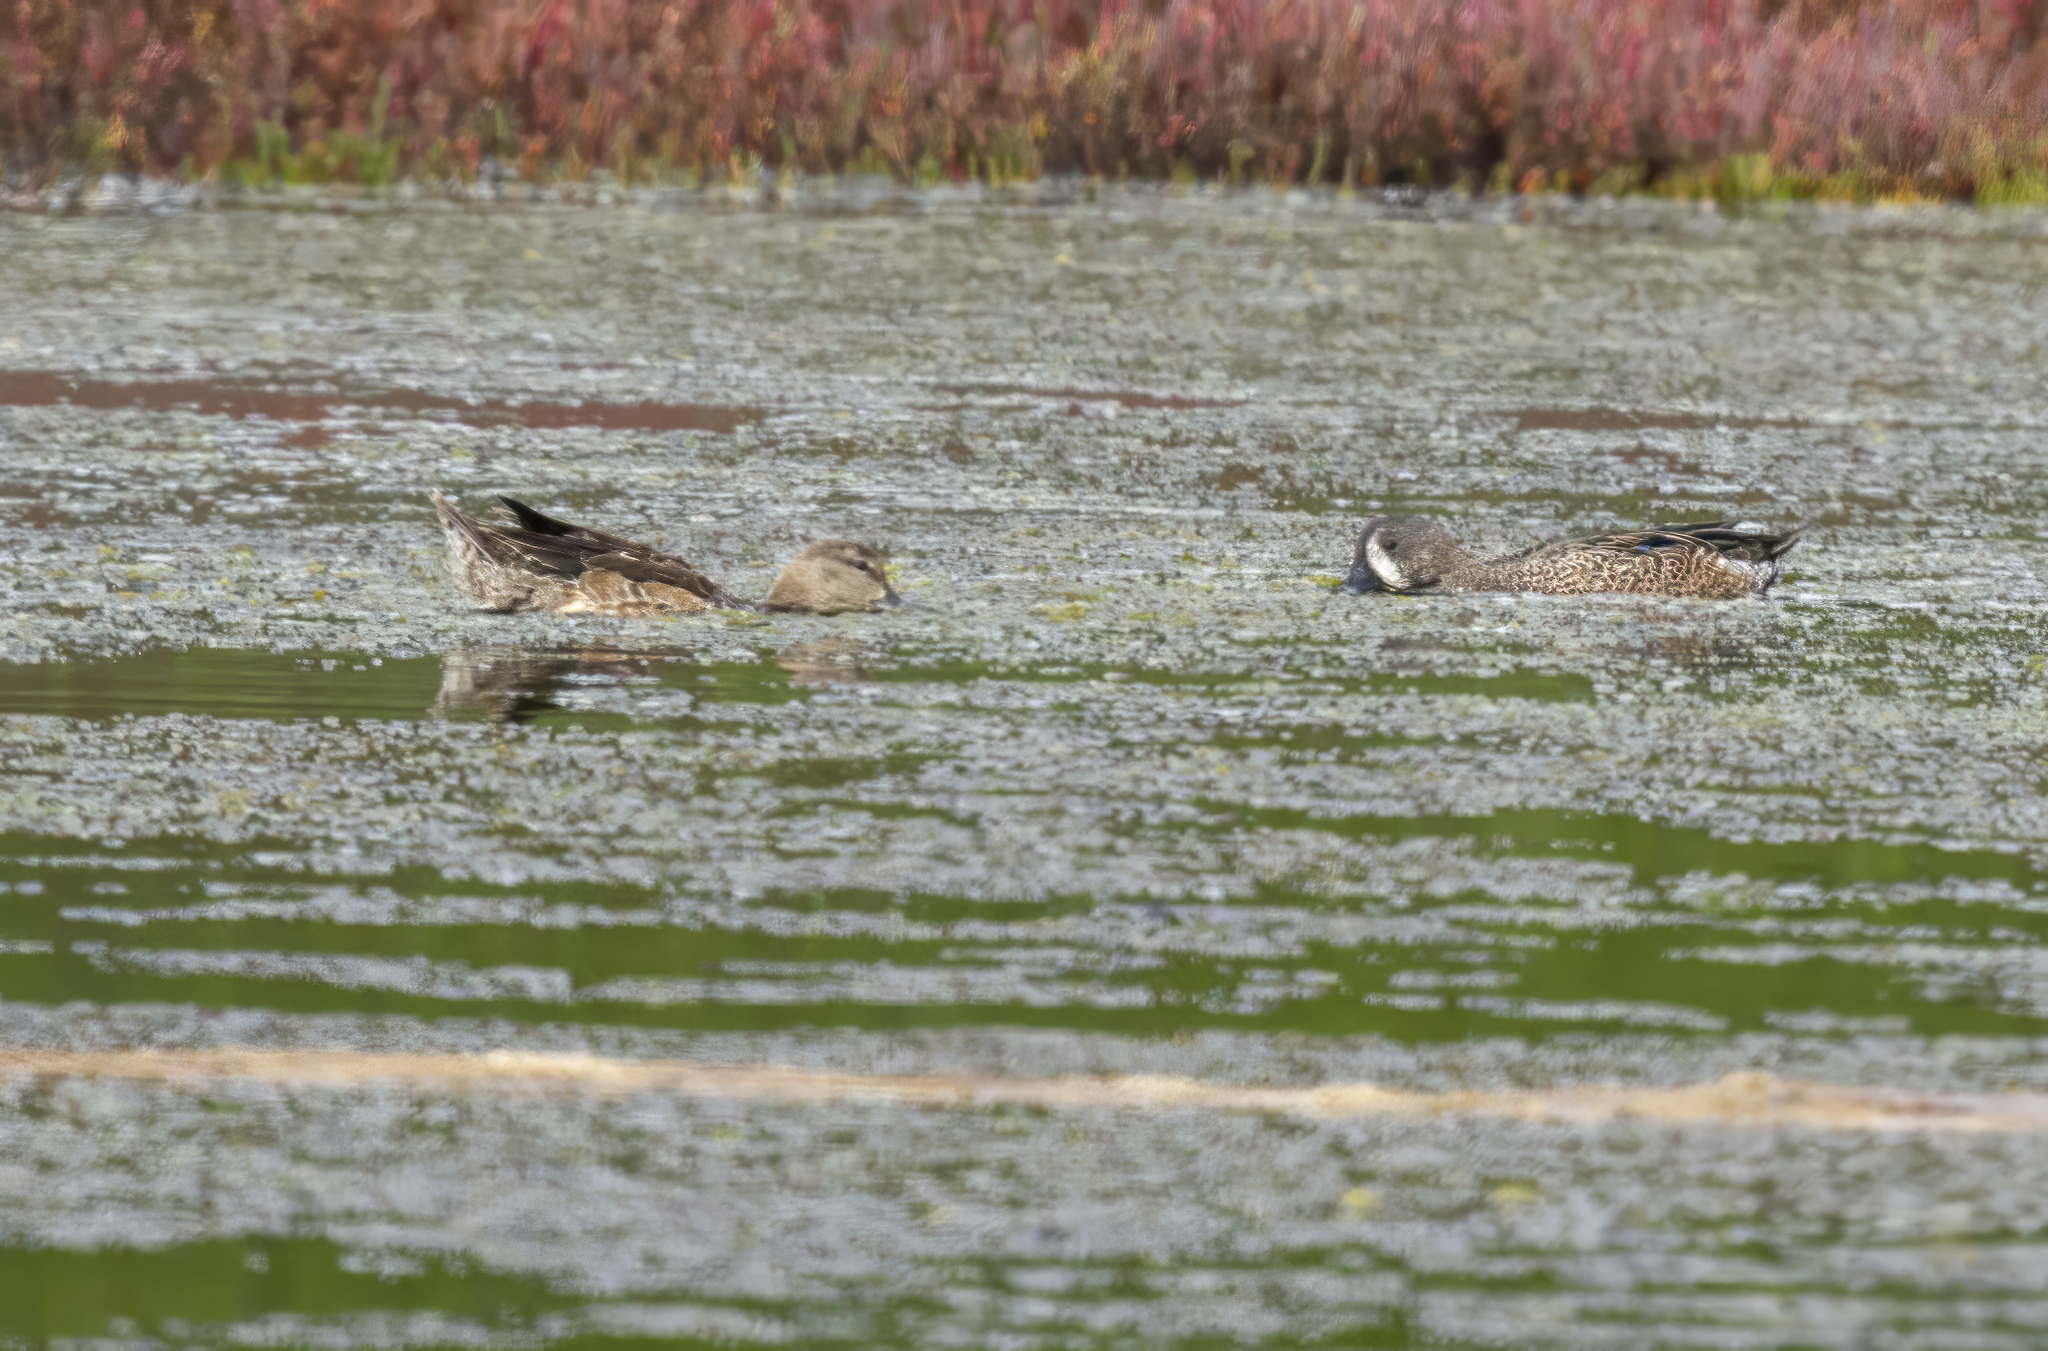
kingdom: Animalia
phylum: Chordata
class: Aves
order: Anseriformes
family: Anatidae
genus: Spatula
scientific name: Spatula discors
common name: Blue-winged teal
